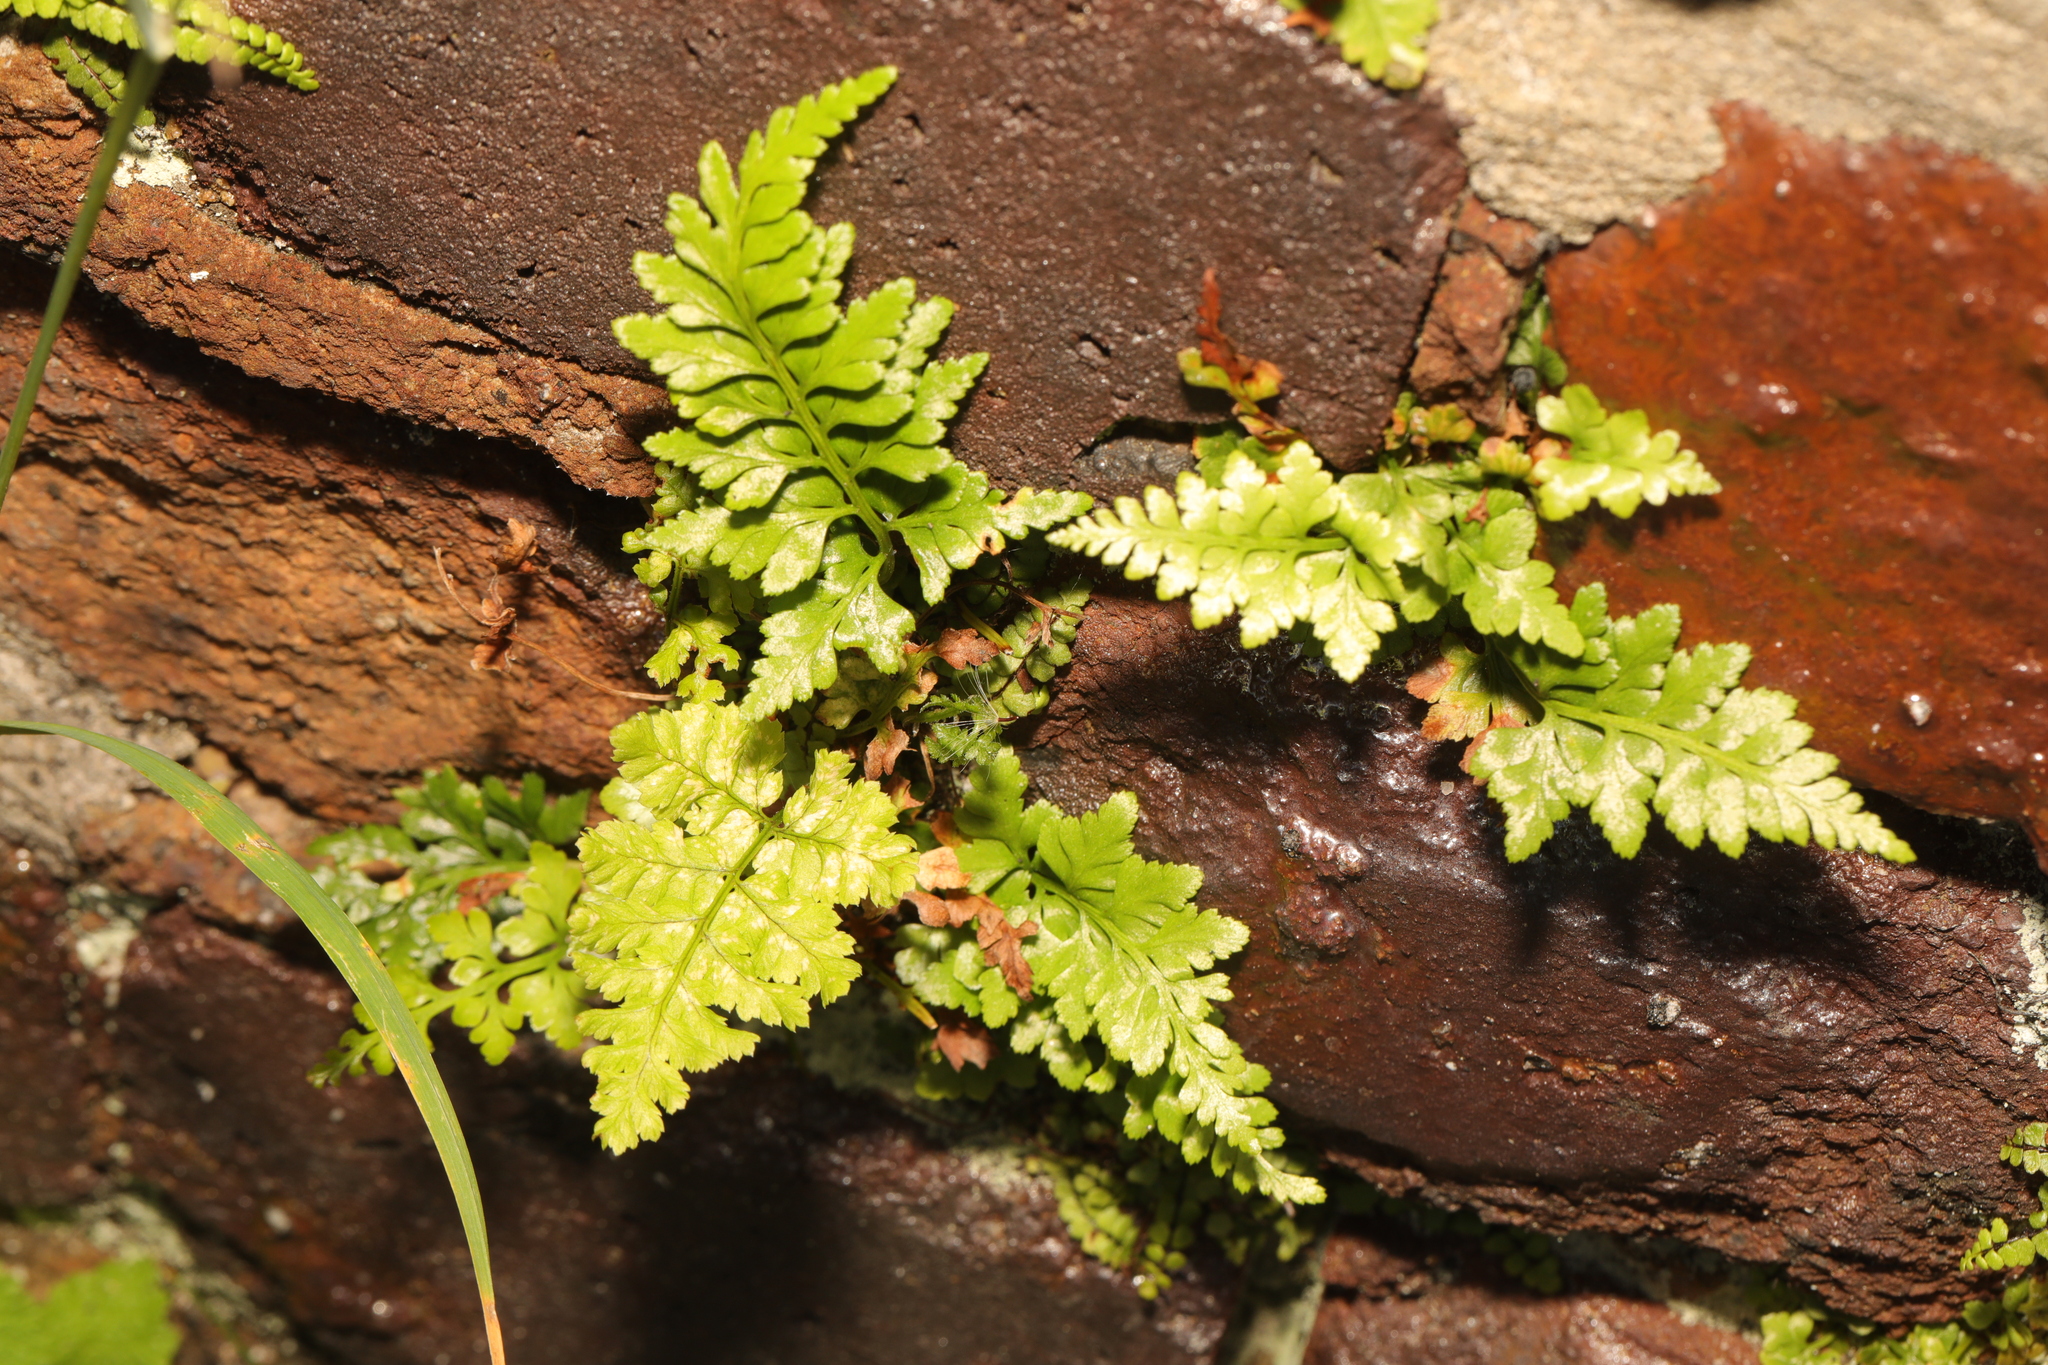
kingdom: Plantae
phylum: Tracheophyta
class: Polypodiopsida
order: Polypodiales
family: Aspleniaceae
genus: Asplenium
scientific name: Asplenium adiantum-nigrum
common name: Black spleenwort
